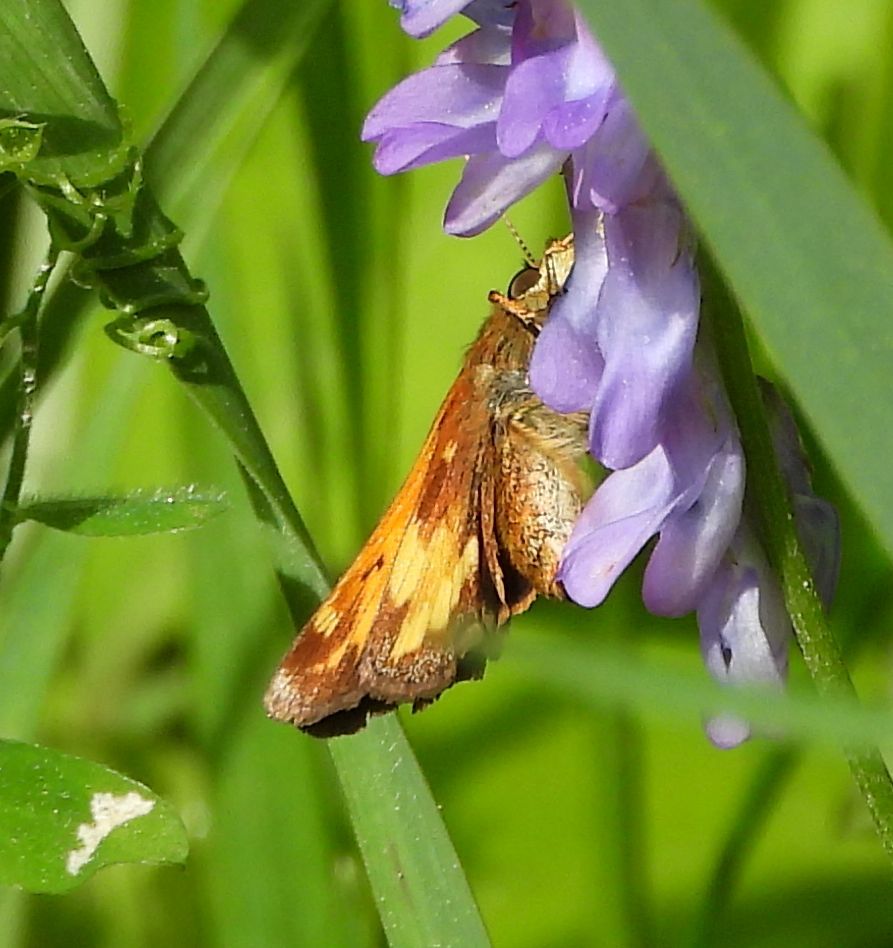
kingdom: Animalia
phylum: Arthropoda
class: Insecta
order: Lepidoptera
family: Hesperiidae
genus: Lon
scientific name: Lon hobomok
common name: Hobomok skipper
